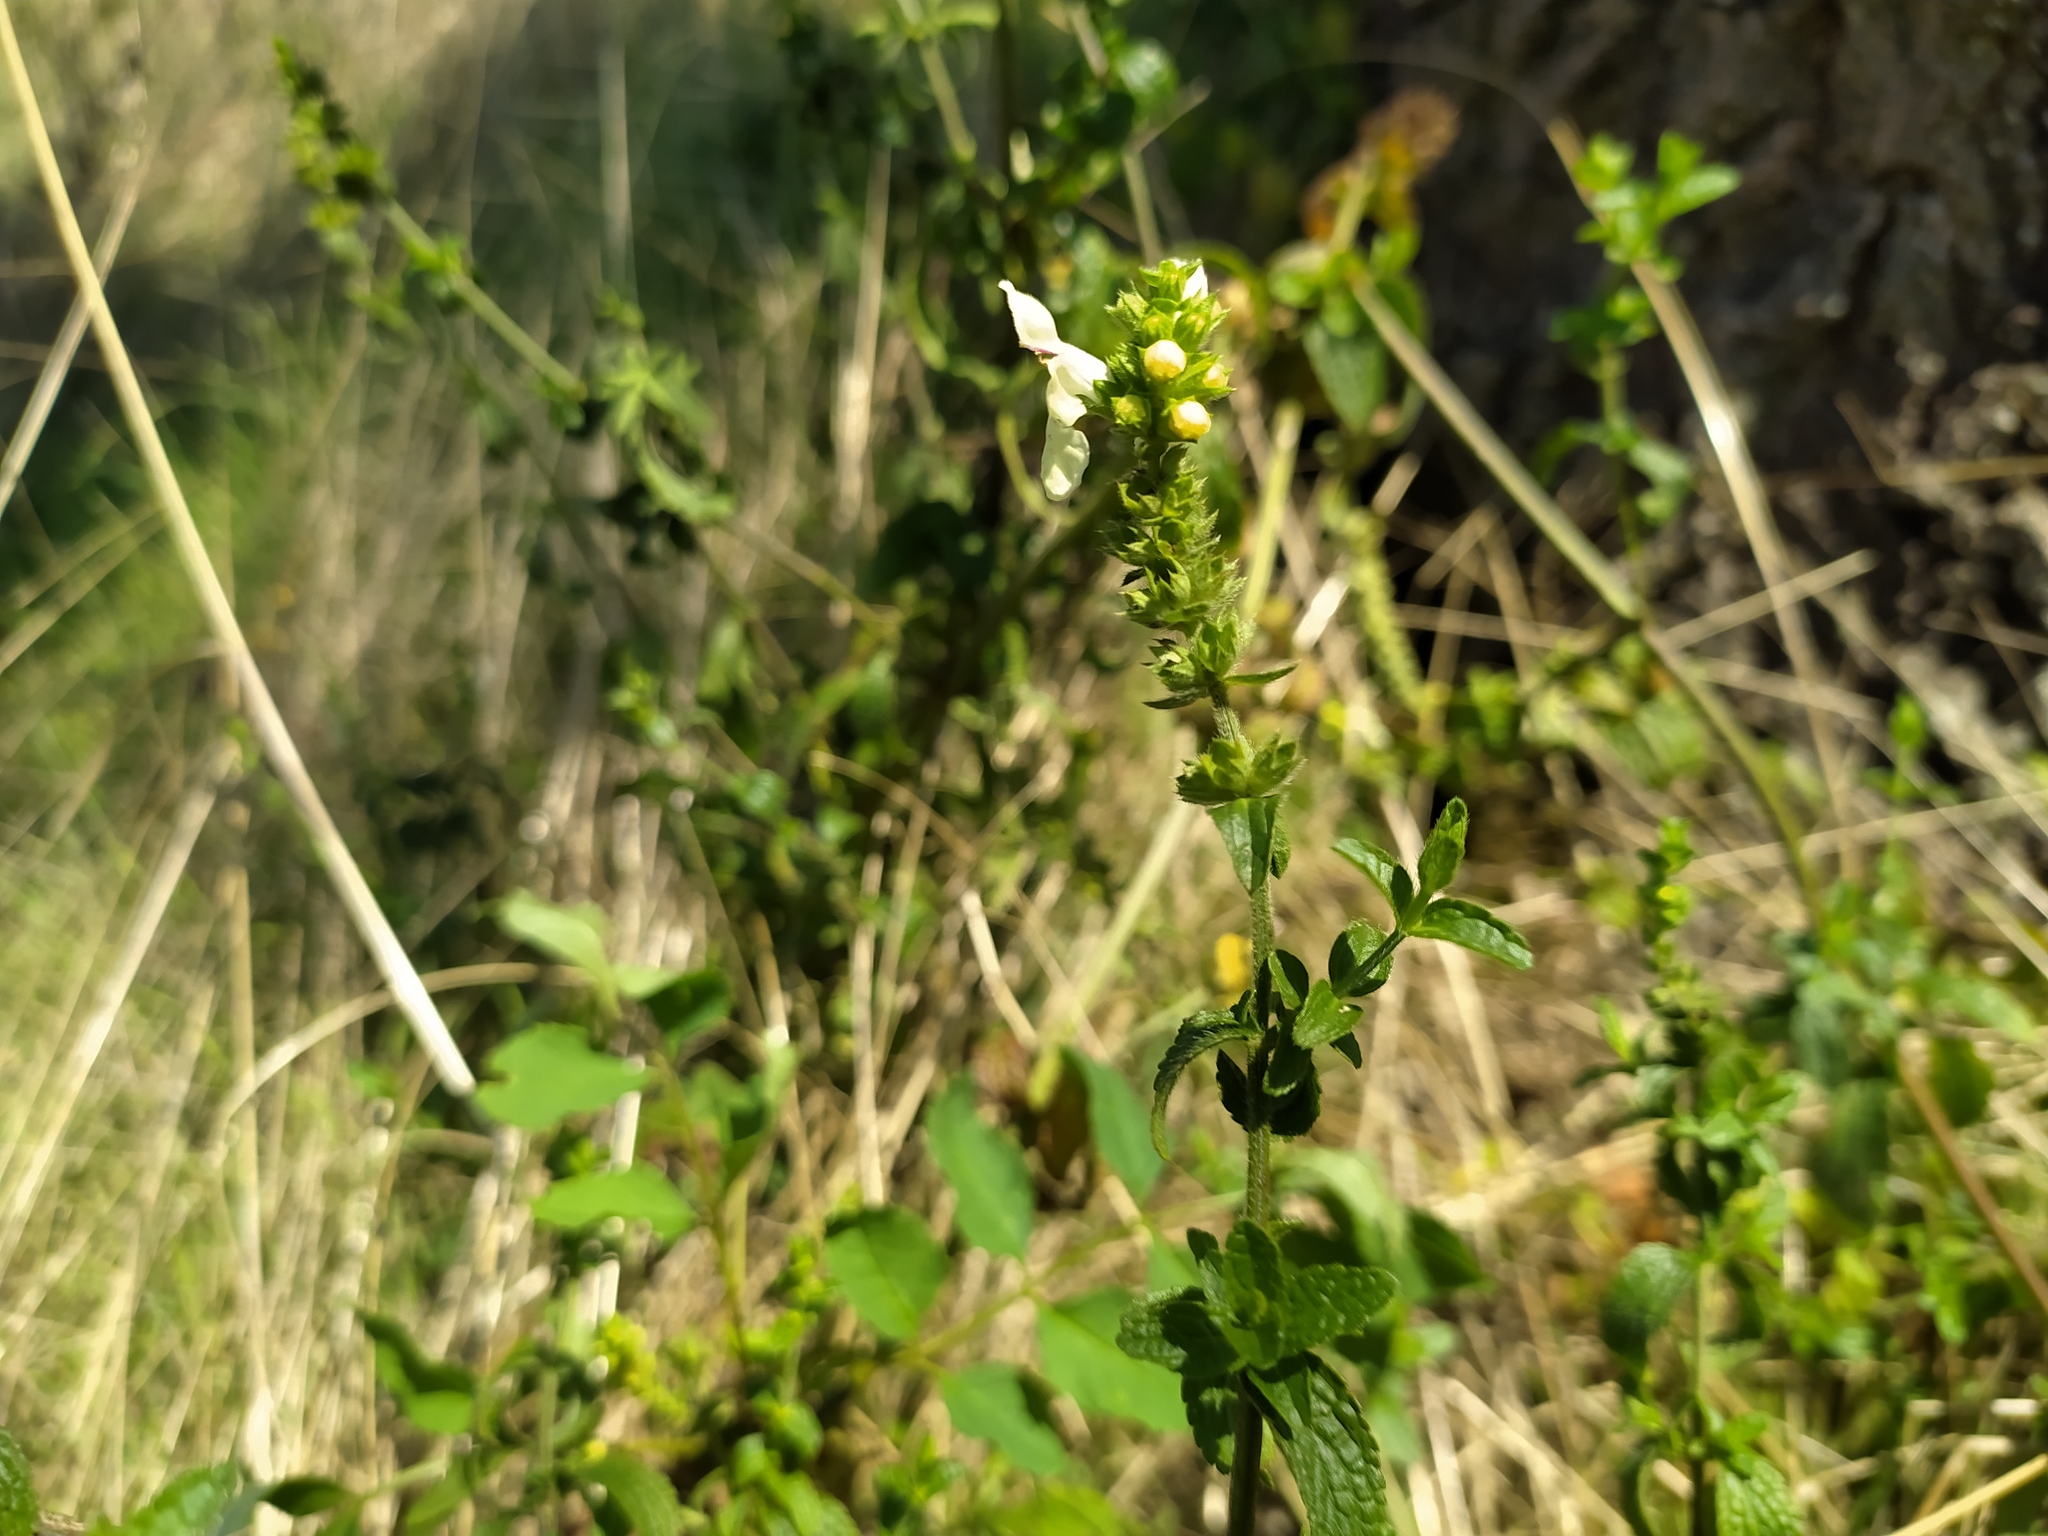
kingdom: Plantae
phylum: Tracheophyta
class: Magnoliopsida
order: Lamiales
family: Lamiaceae
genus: Stachys
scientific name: Stachys recta
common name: Perennial yellow-woundwort
